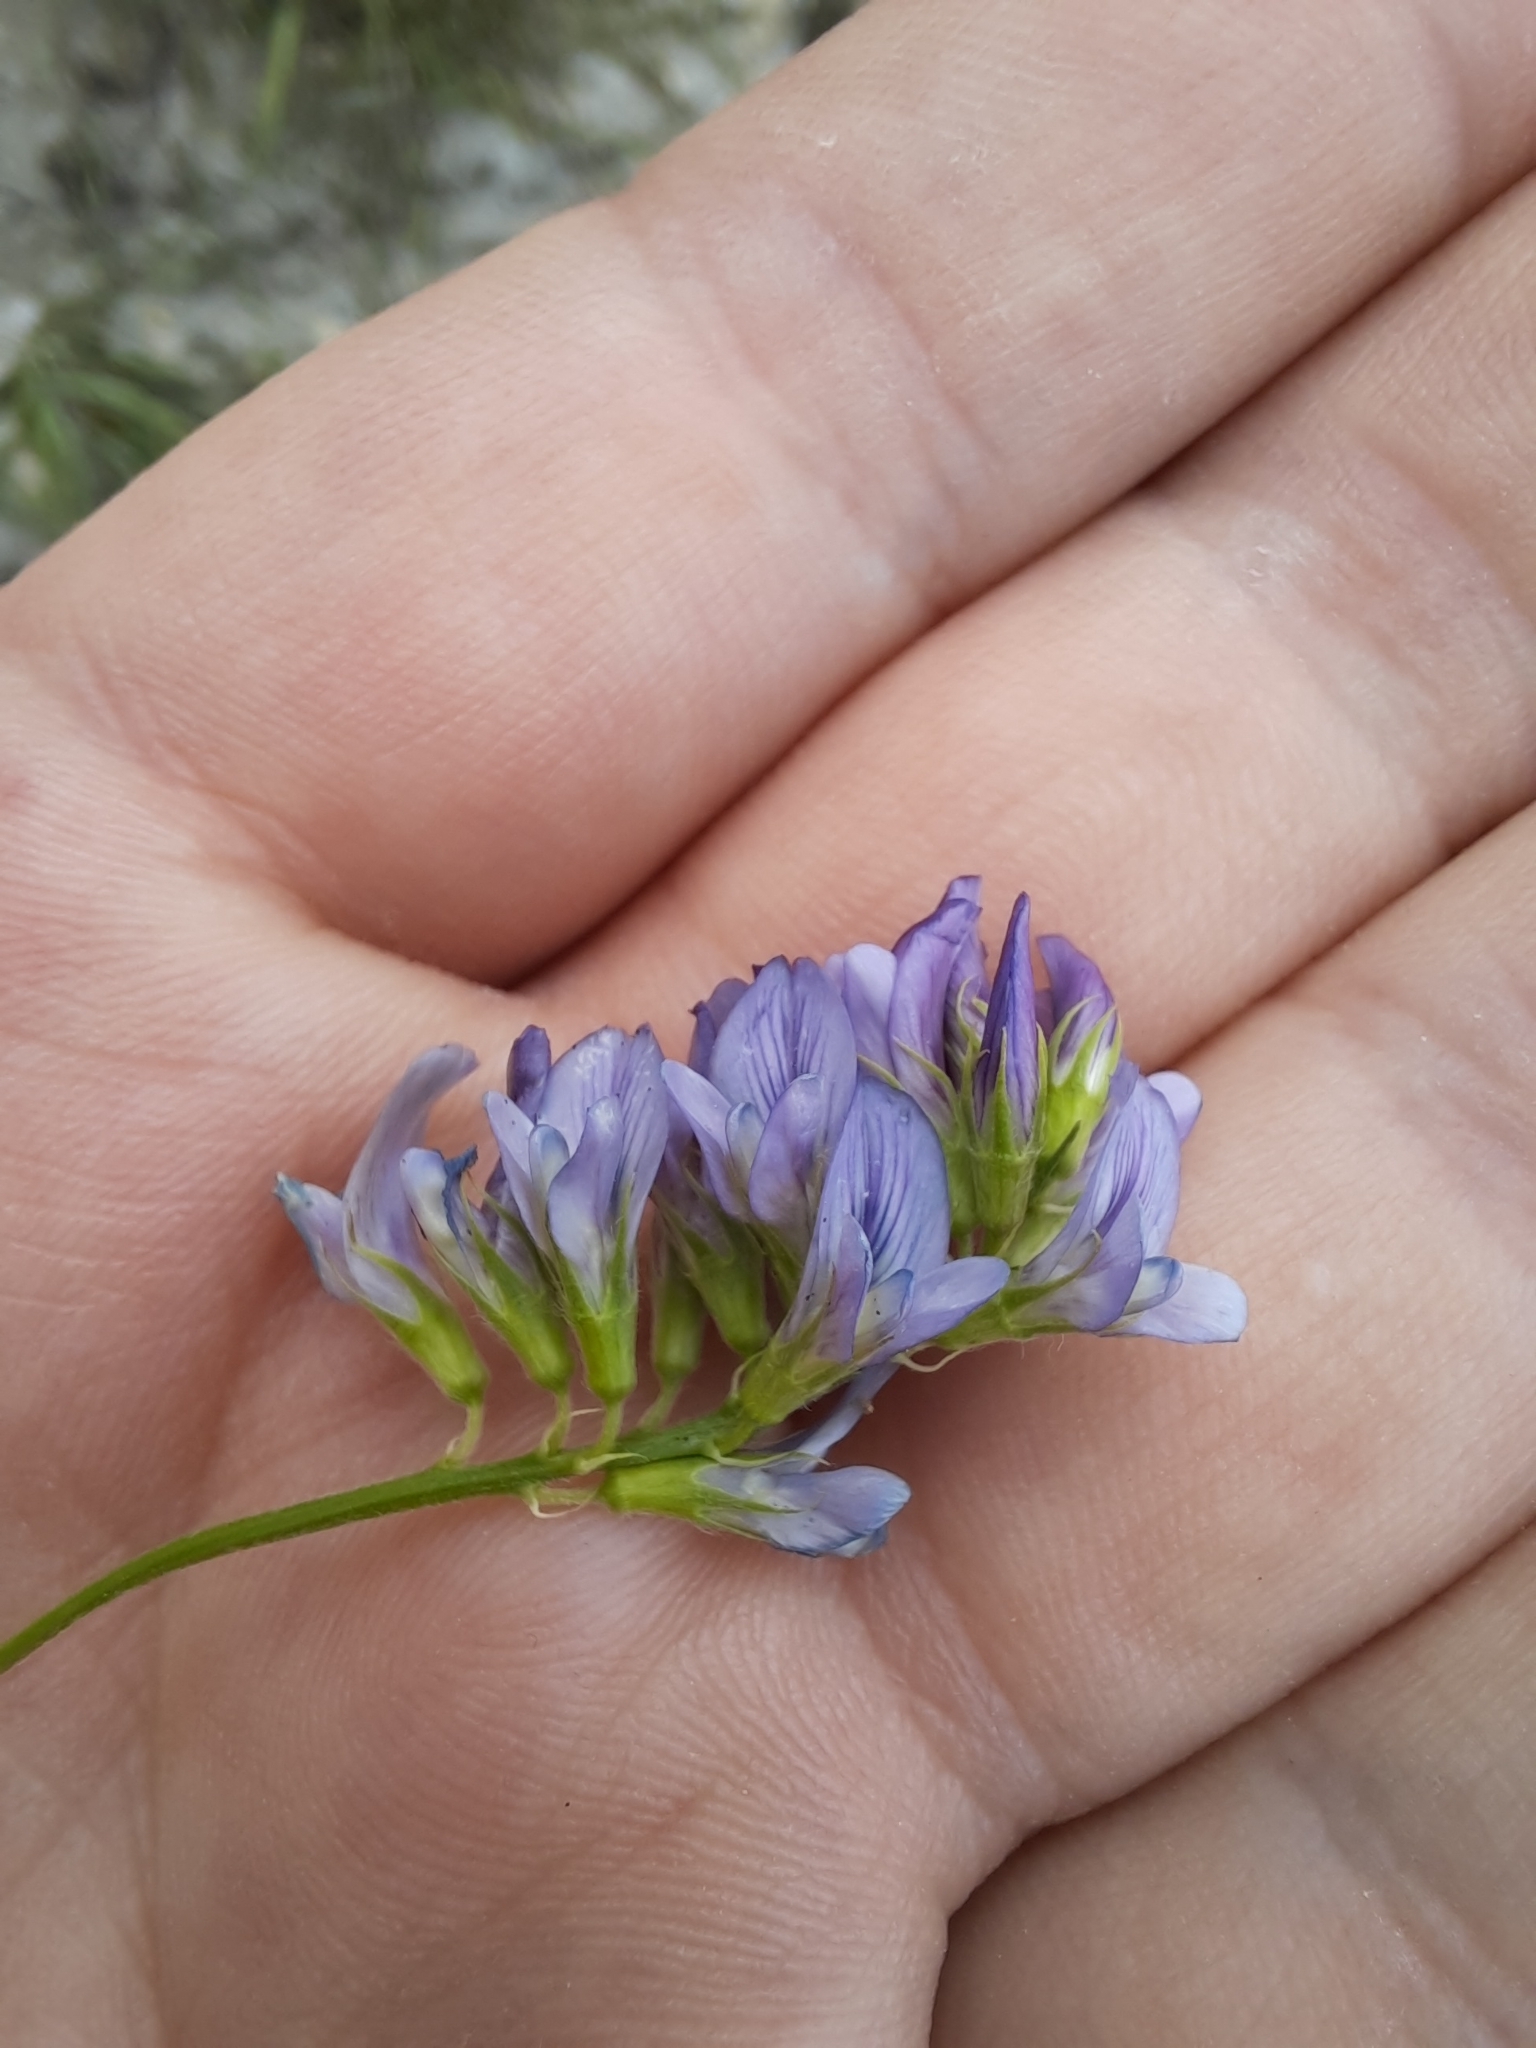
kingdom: Plantae
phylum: Tracheophyta
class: Magnoliopsida
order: Fabales
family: Fabaceae
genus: Medicago
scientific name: Medicago sativa
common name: Alfalfa
